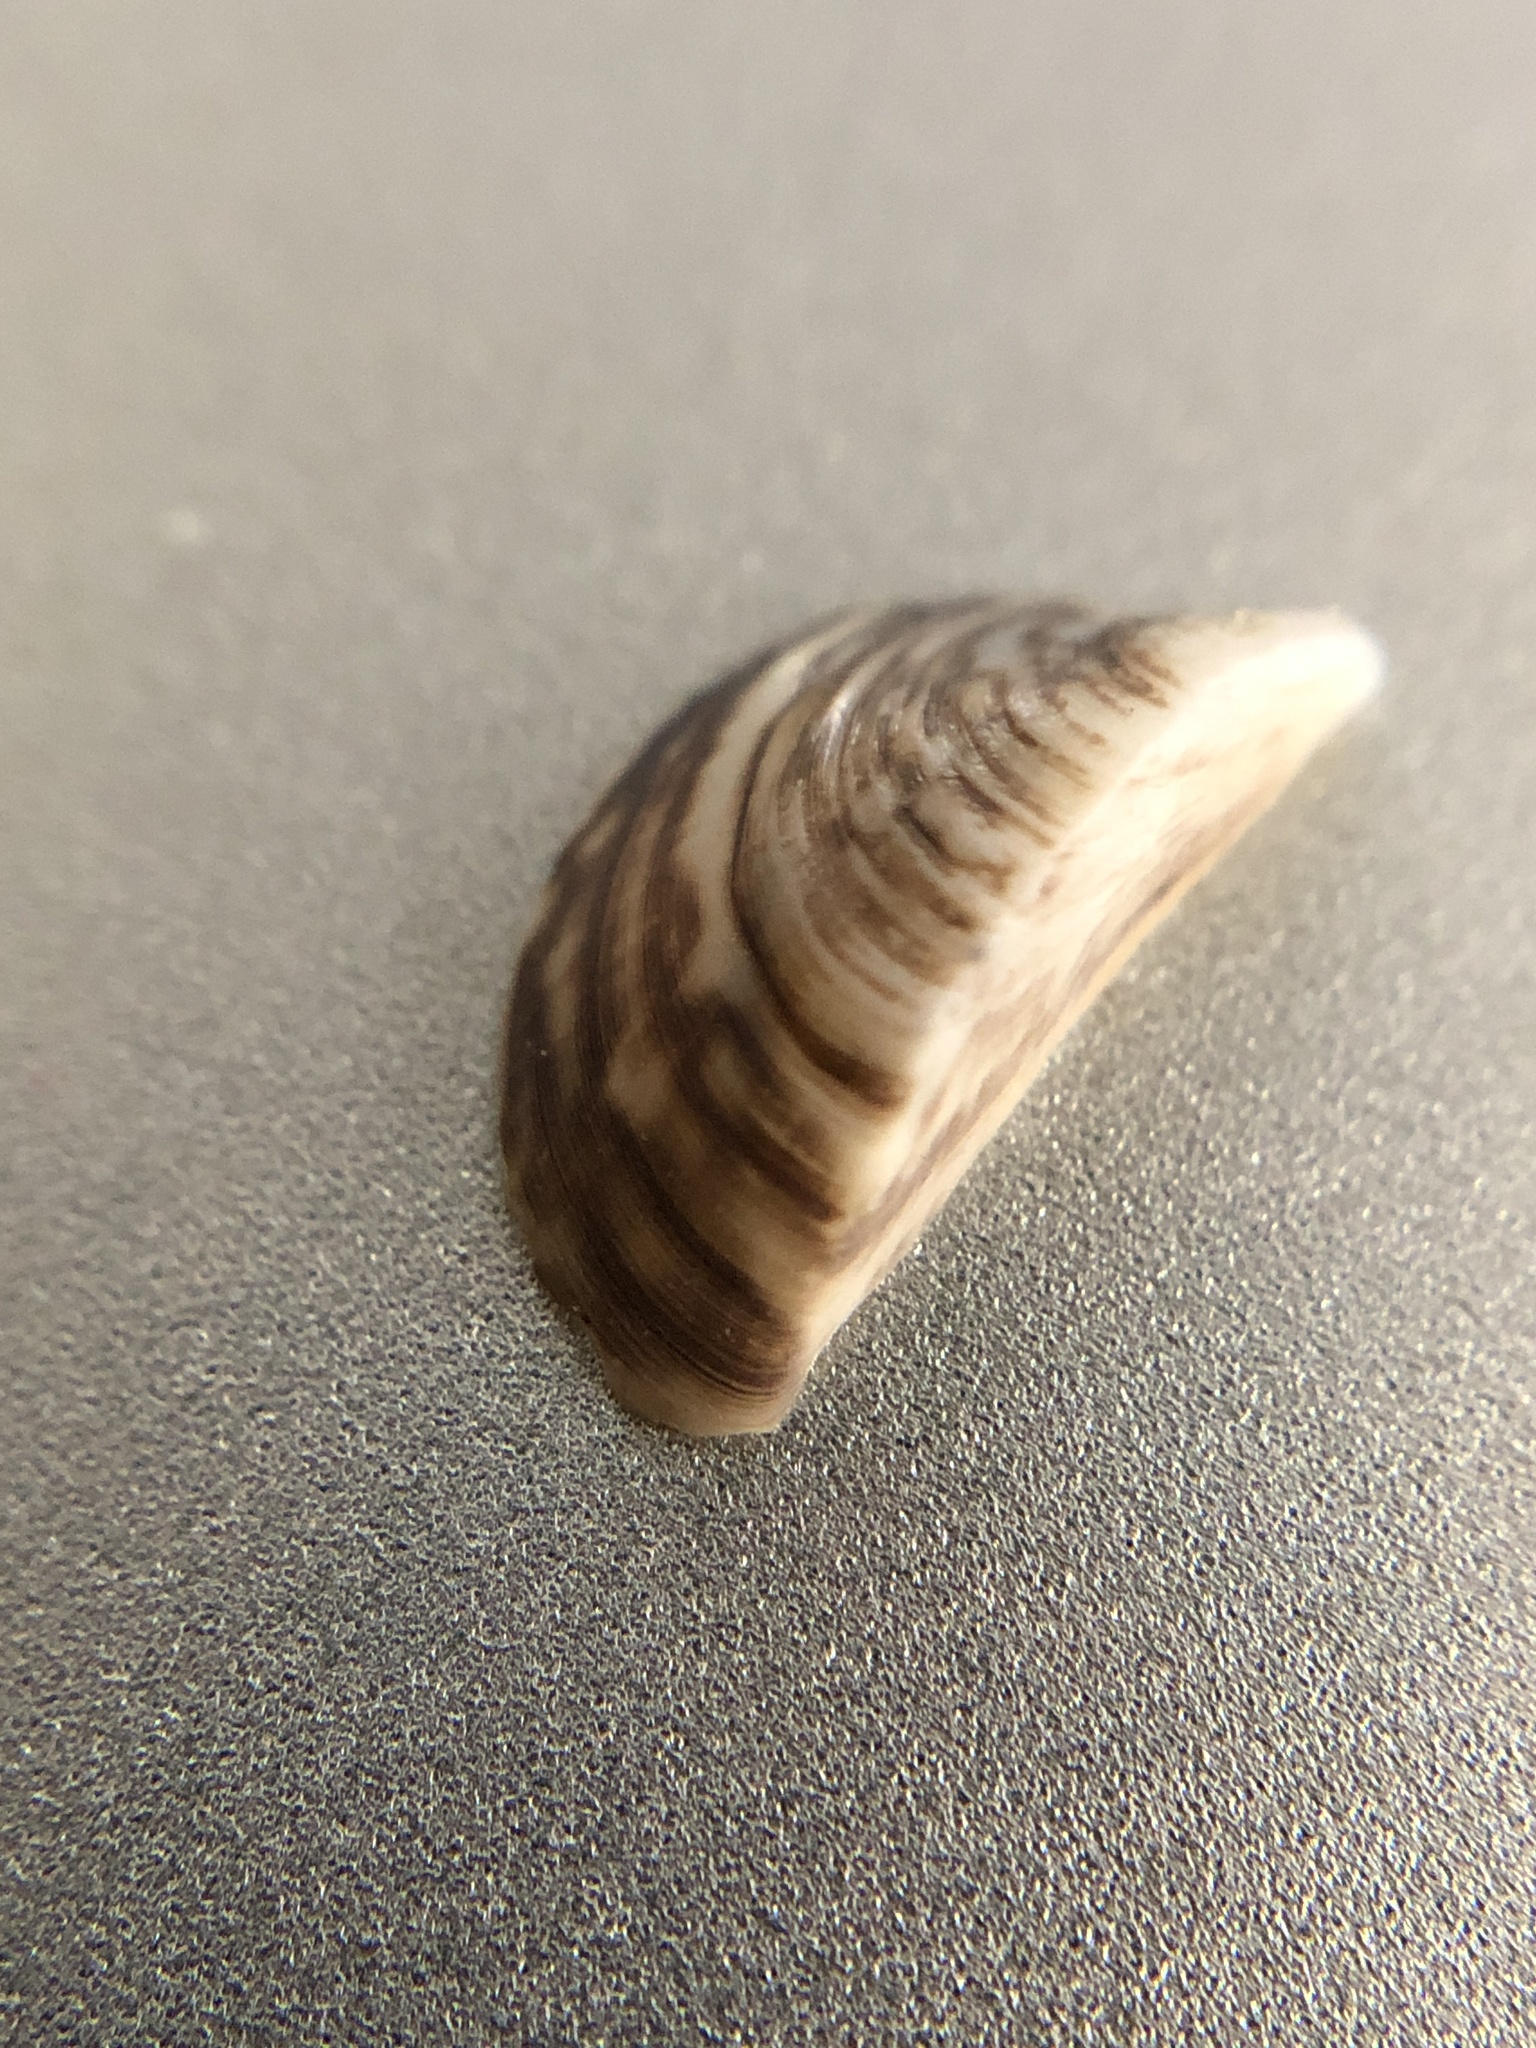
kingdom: Animalia
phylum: Mollusca
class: Bivalvia
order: Myida
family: Dreissenidae
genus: Dreissena
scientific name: Dreissena polymorpha
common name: Zebra mussel
